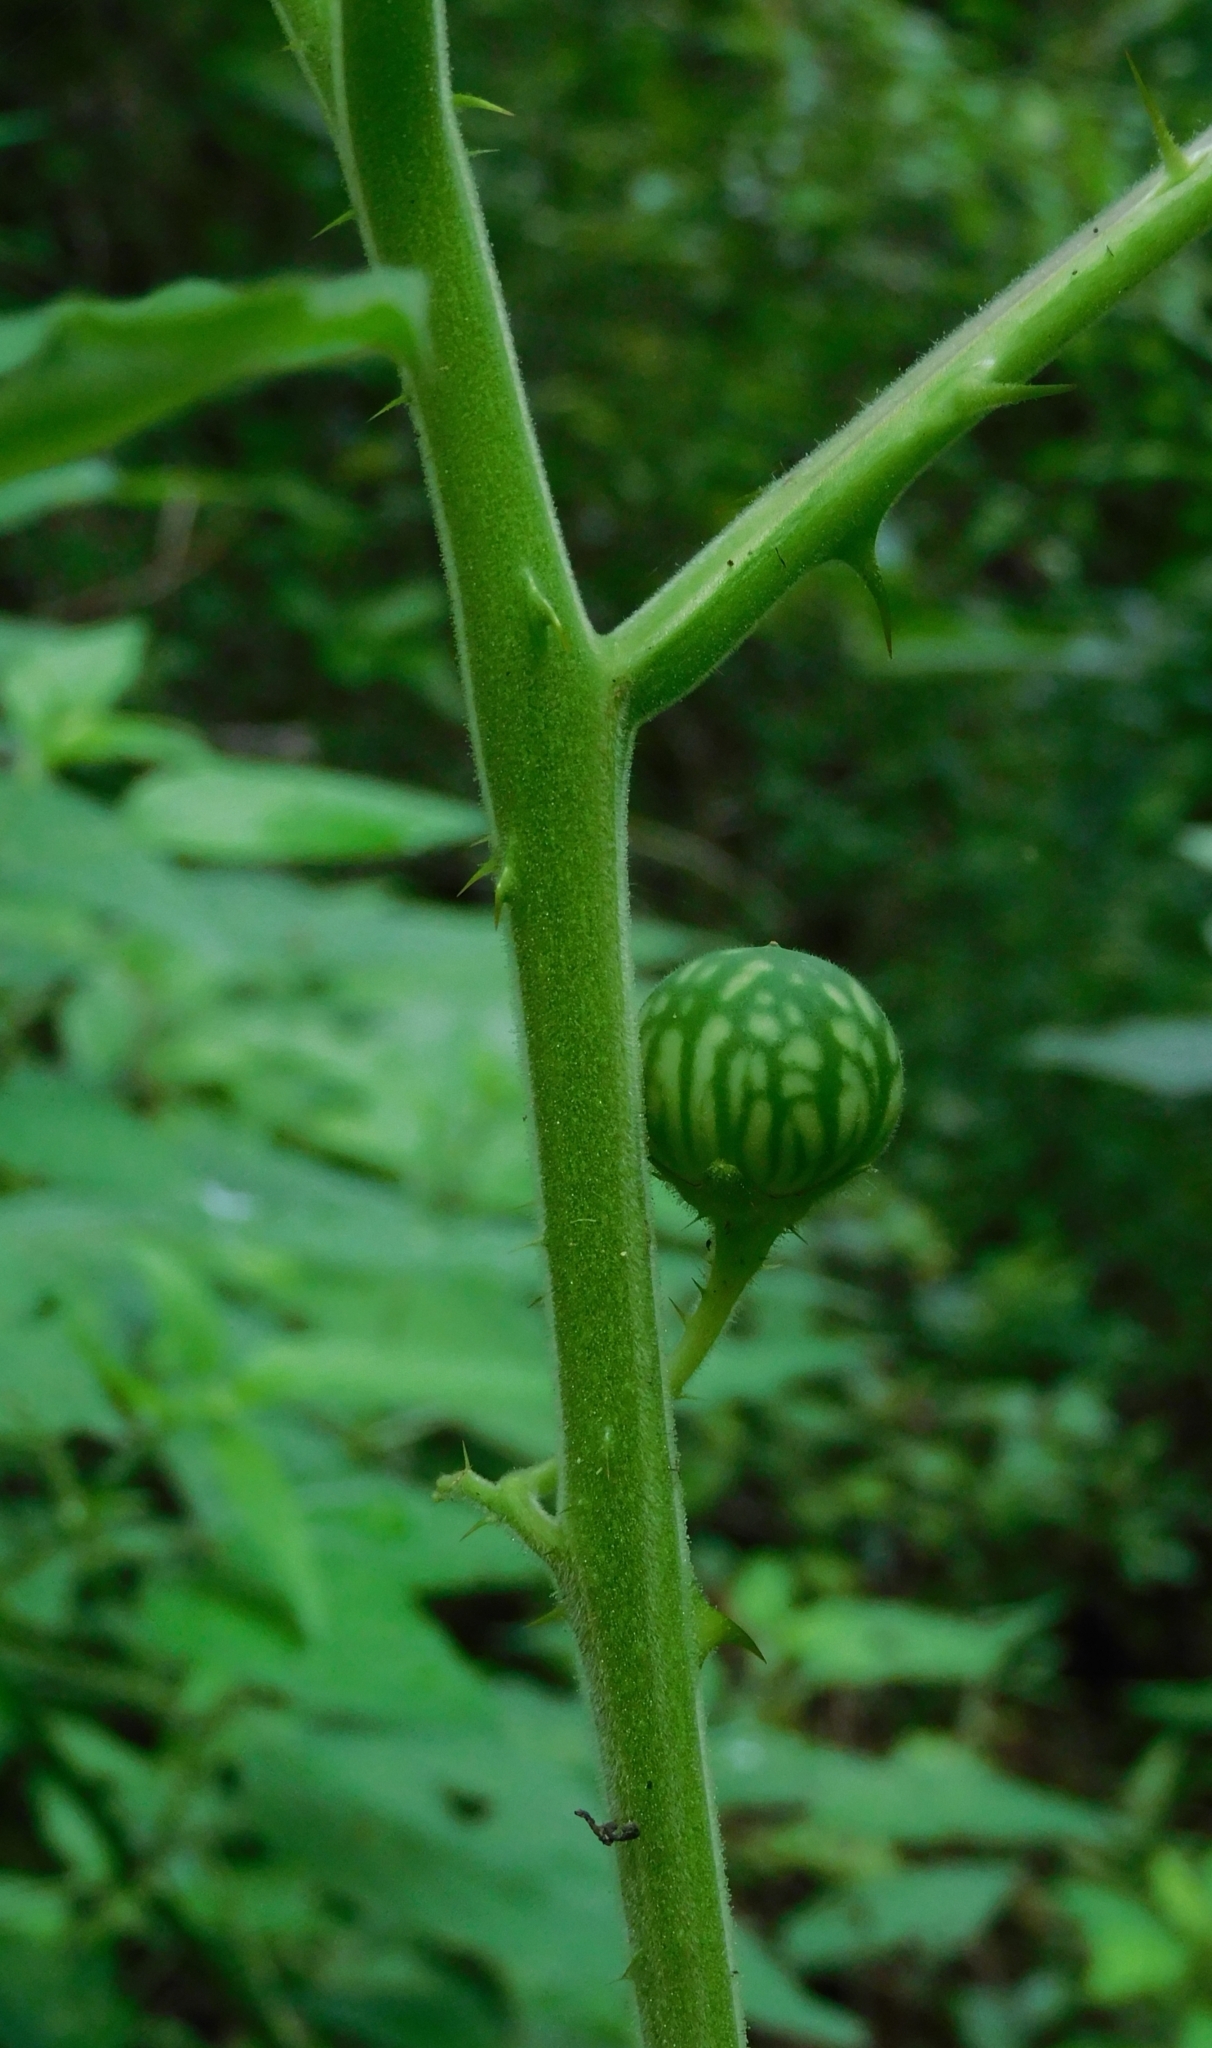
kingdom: Plantae
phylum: Tracheophyta
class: Magnoliopsida
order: Solanales
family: Solanaceae
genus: Solanum
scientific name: Solanum viarum
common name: Tropical soda apple
